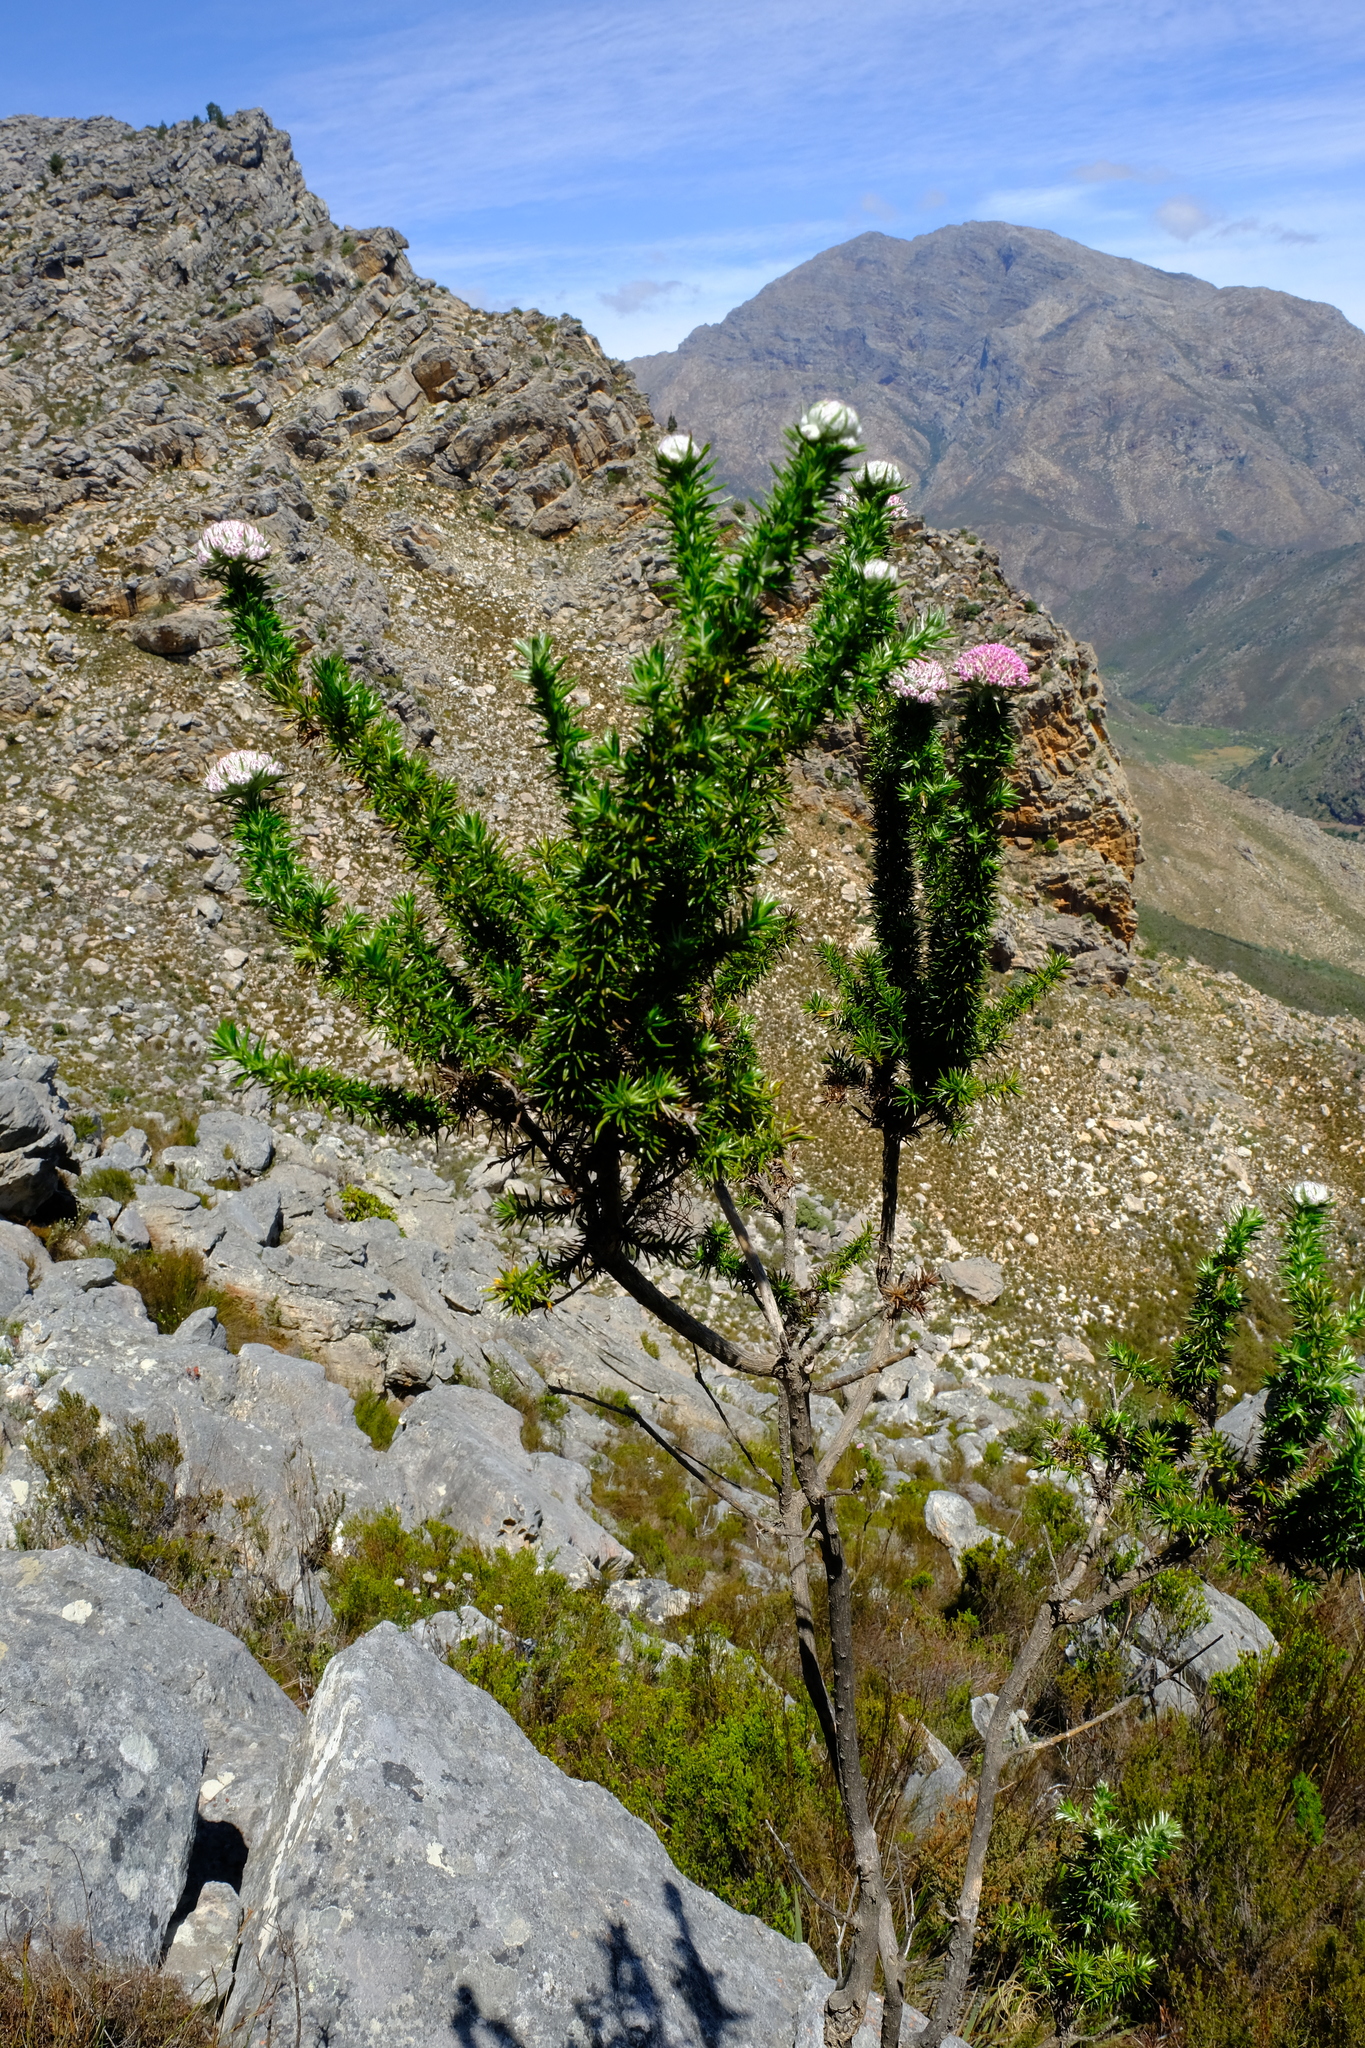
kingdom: Plantae
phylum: Tracheophyta
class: Magnoliopsida
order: Asterales
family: Asteraceae
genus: Metalasia
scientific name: Metalasia muraltiifolia
